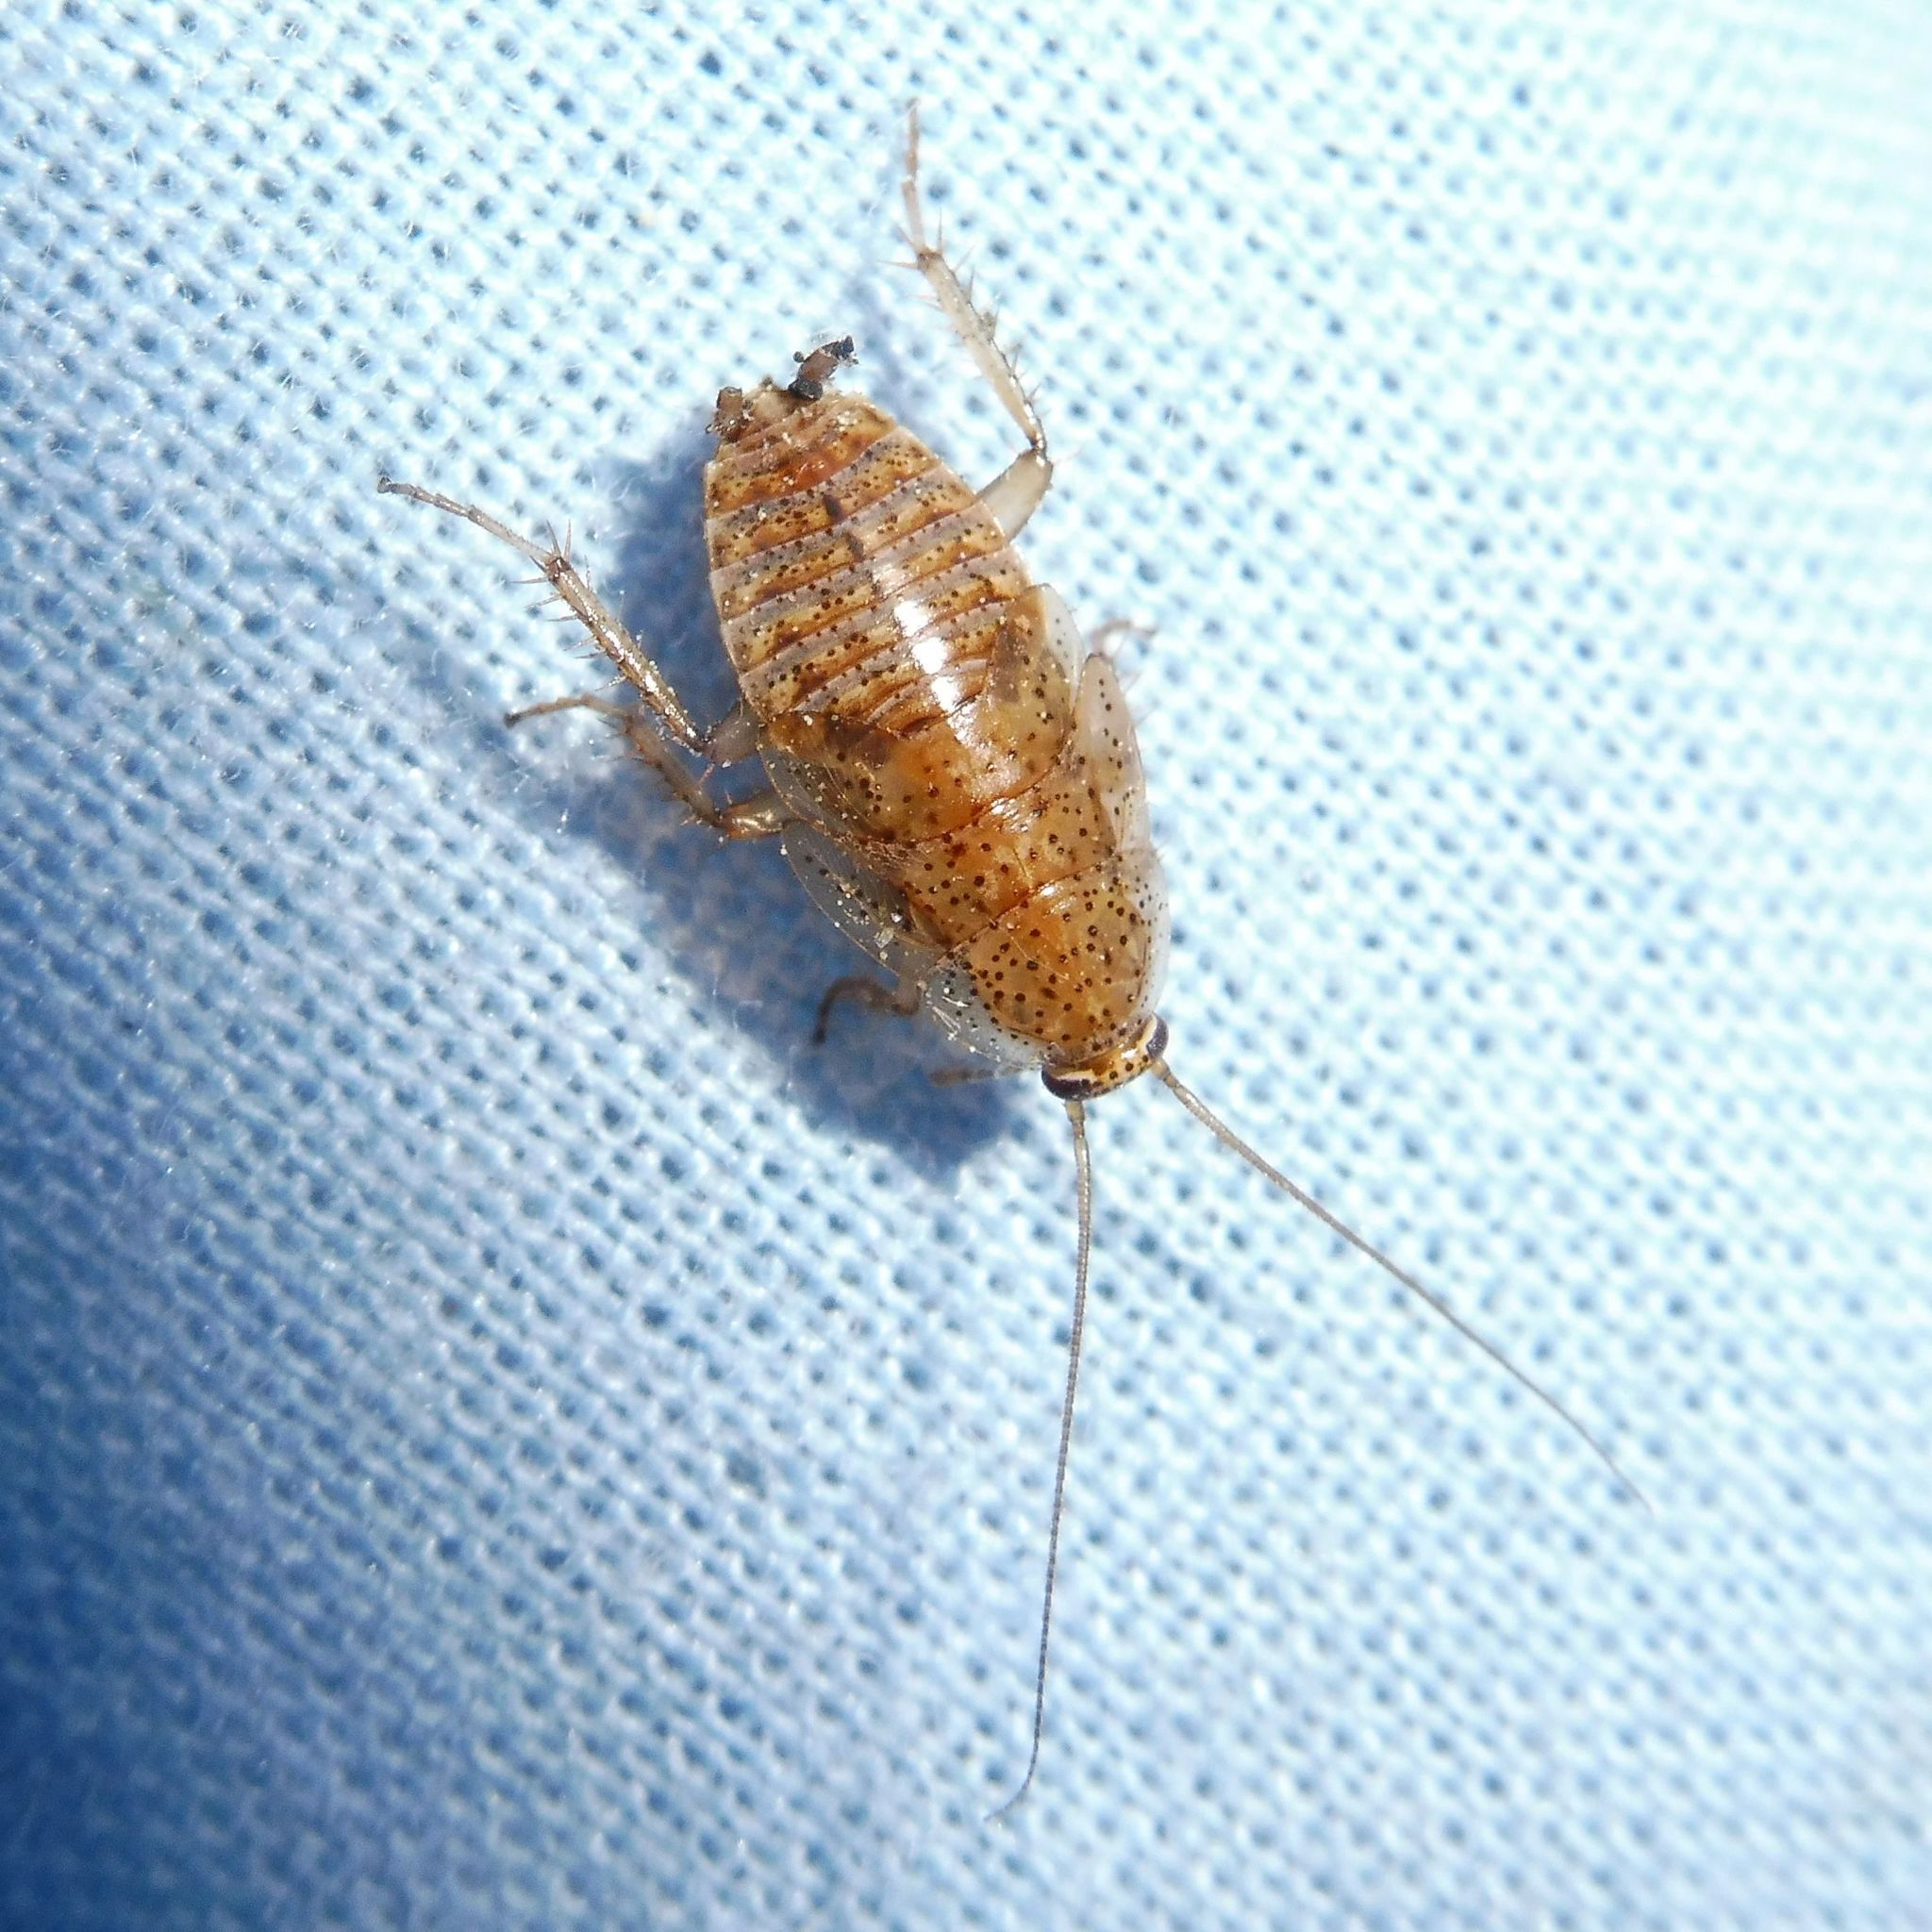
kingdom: Animalia
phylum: Arthropoda
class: Insecta
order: Blattodea
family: Ectobiidae
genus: Ectobius
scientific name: Ectobius pallidus
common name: Tawny cockroach
